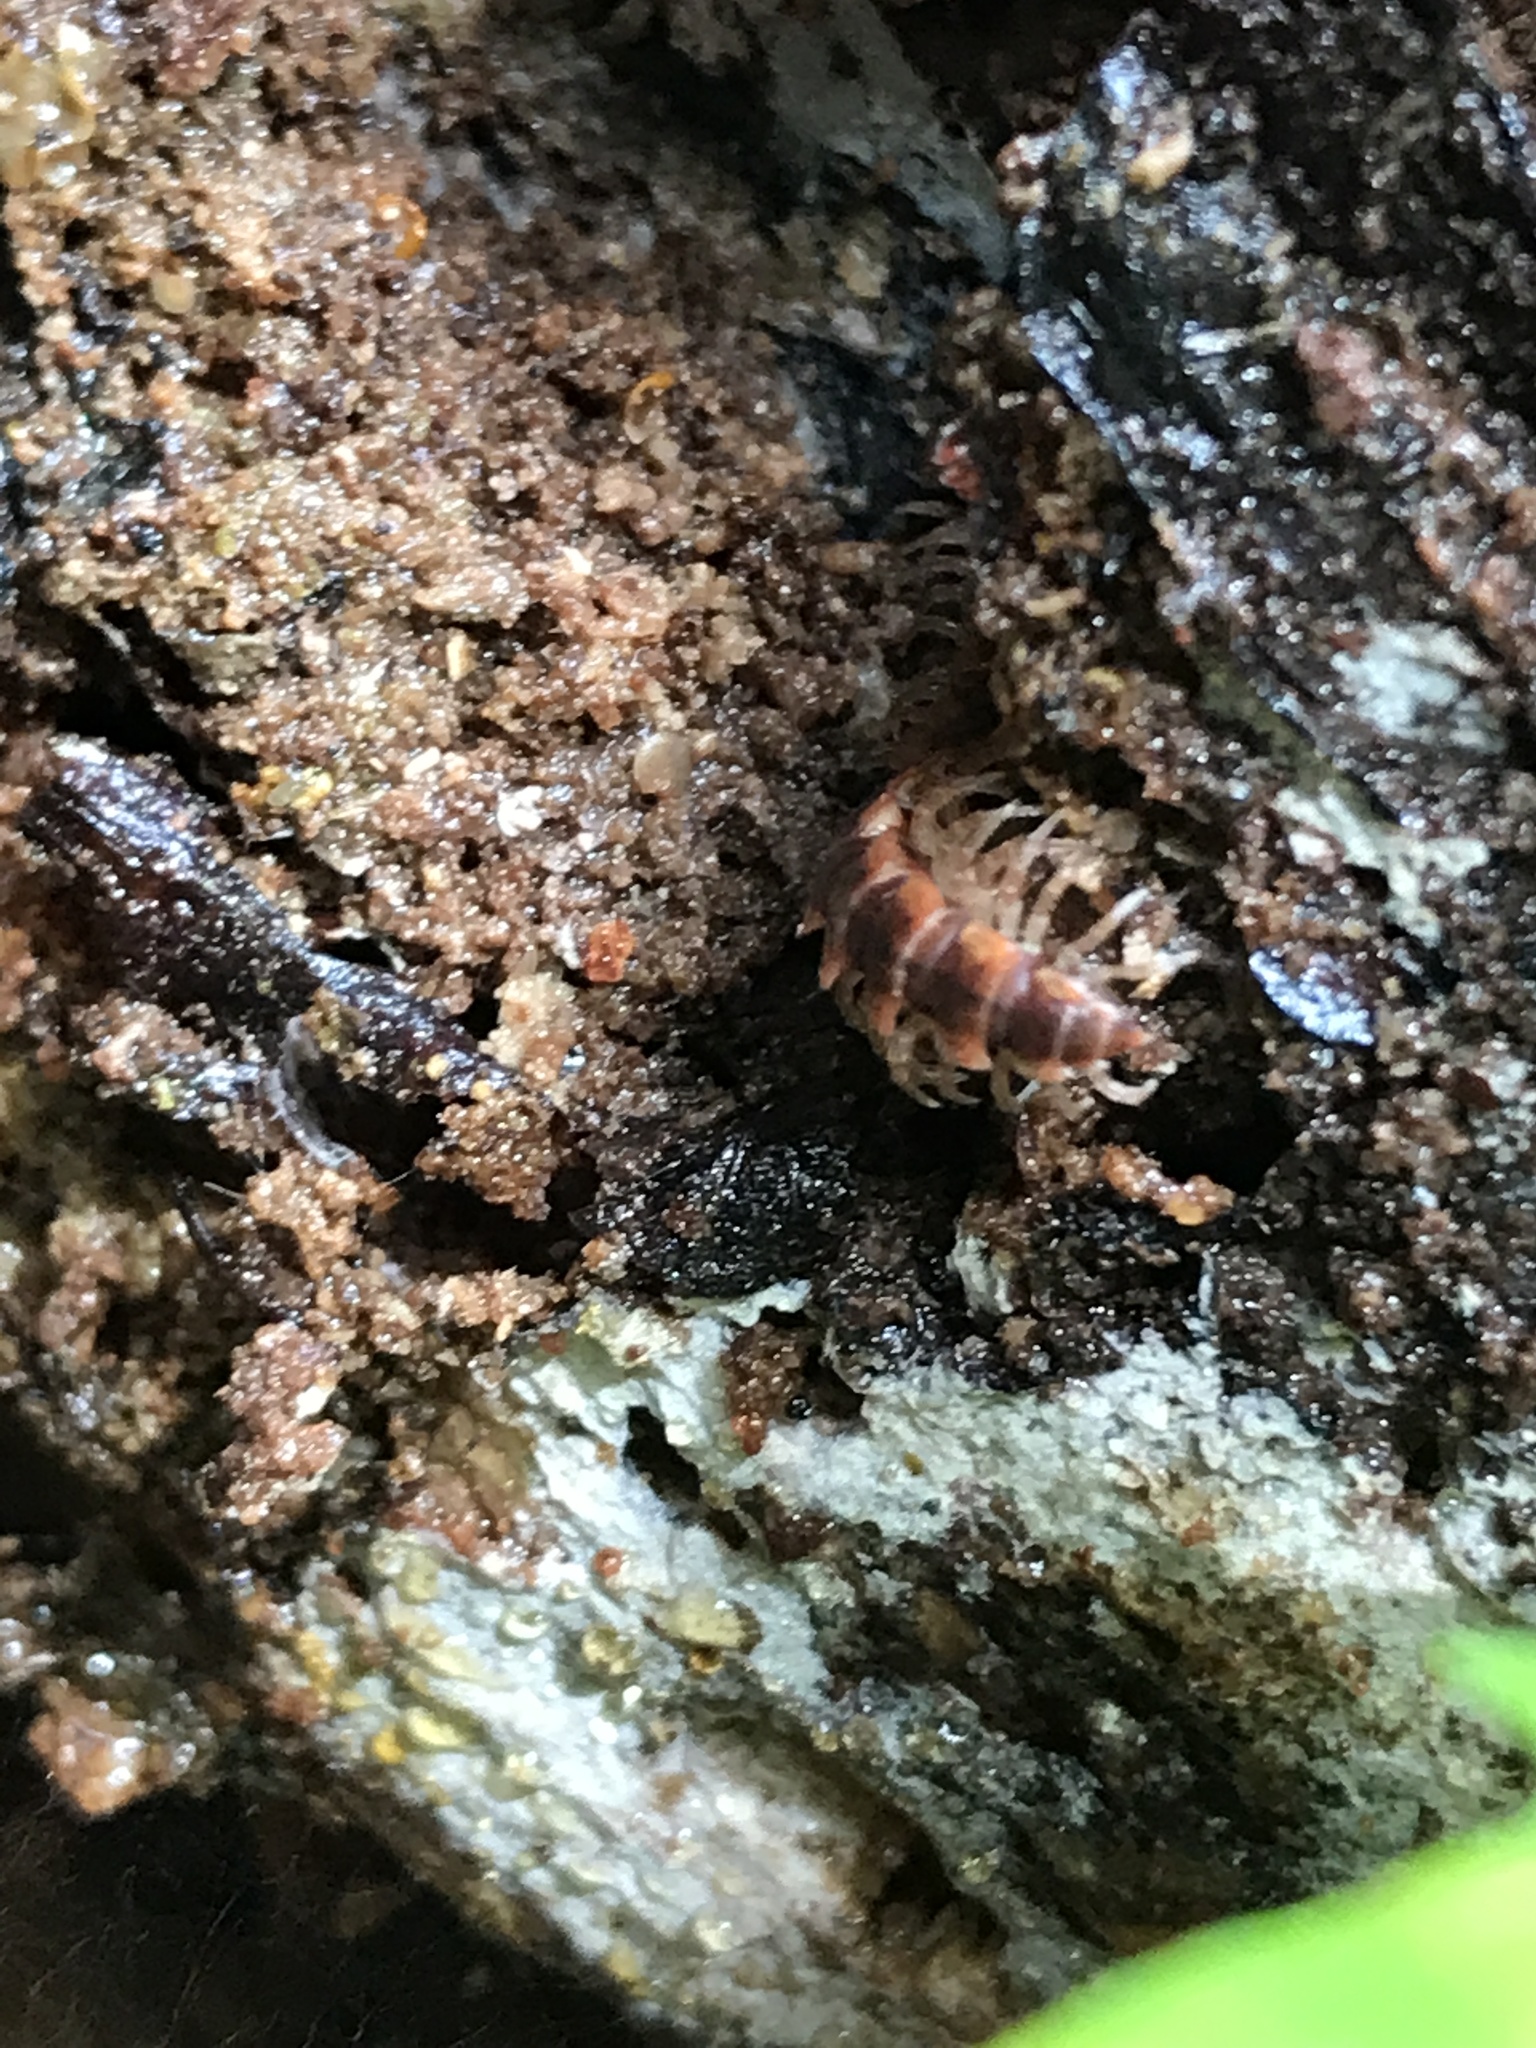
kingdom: Animalia
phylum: Arthropoda
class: Diplopoda
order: Polydesmida
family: Polydesmidae
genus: Pseudopolydesmus
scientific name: Pseudopolydesmus canadensis
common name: Canadian flat-back millipede
